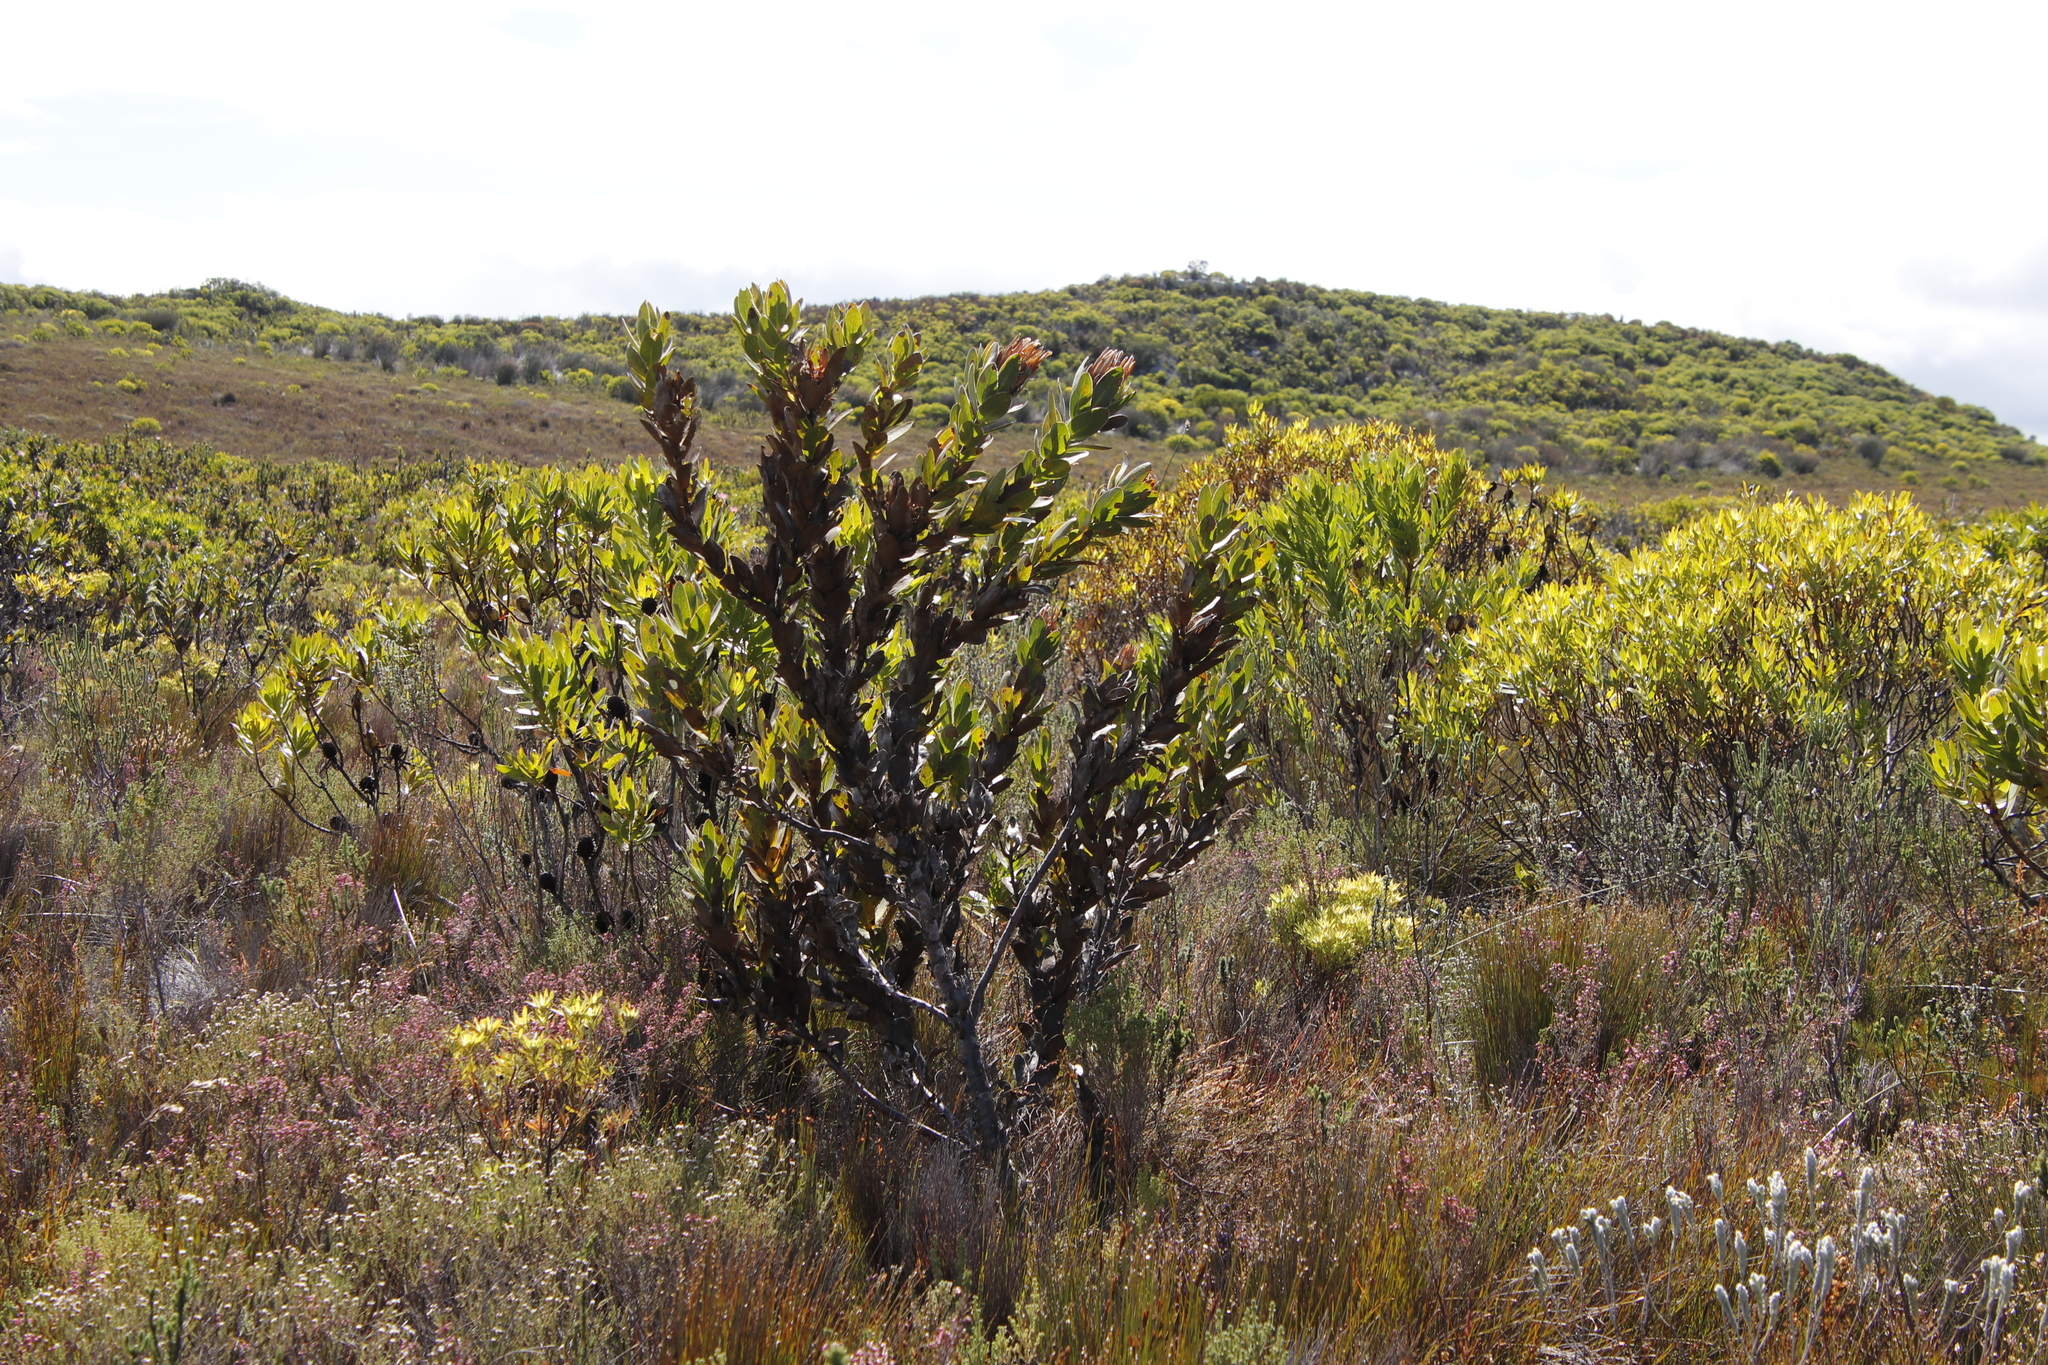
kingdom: Plantae
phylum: Tracheophyta
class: Magnoliopsida
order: Proteales
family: Proteaceae
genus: Protea
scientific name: Protea compacta
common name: Bot river protea
